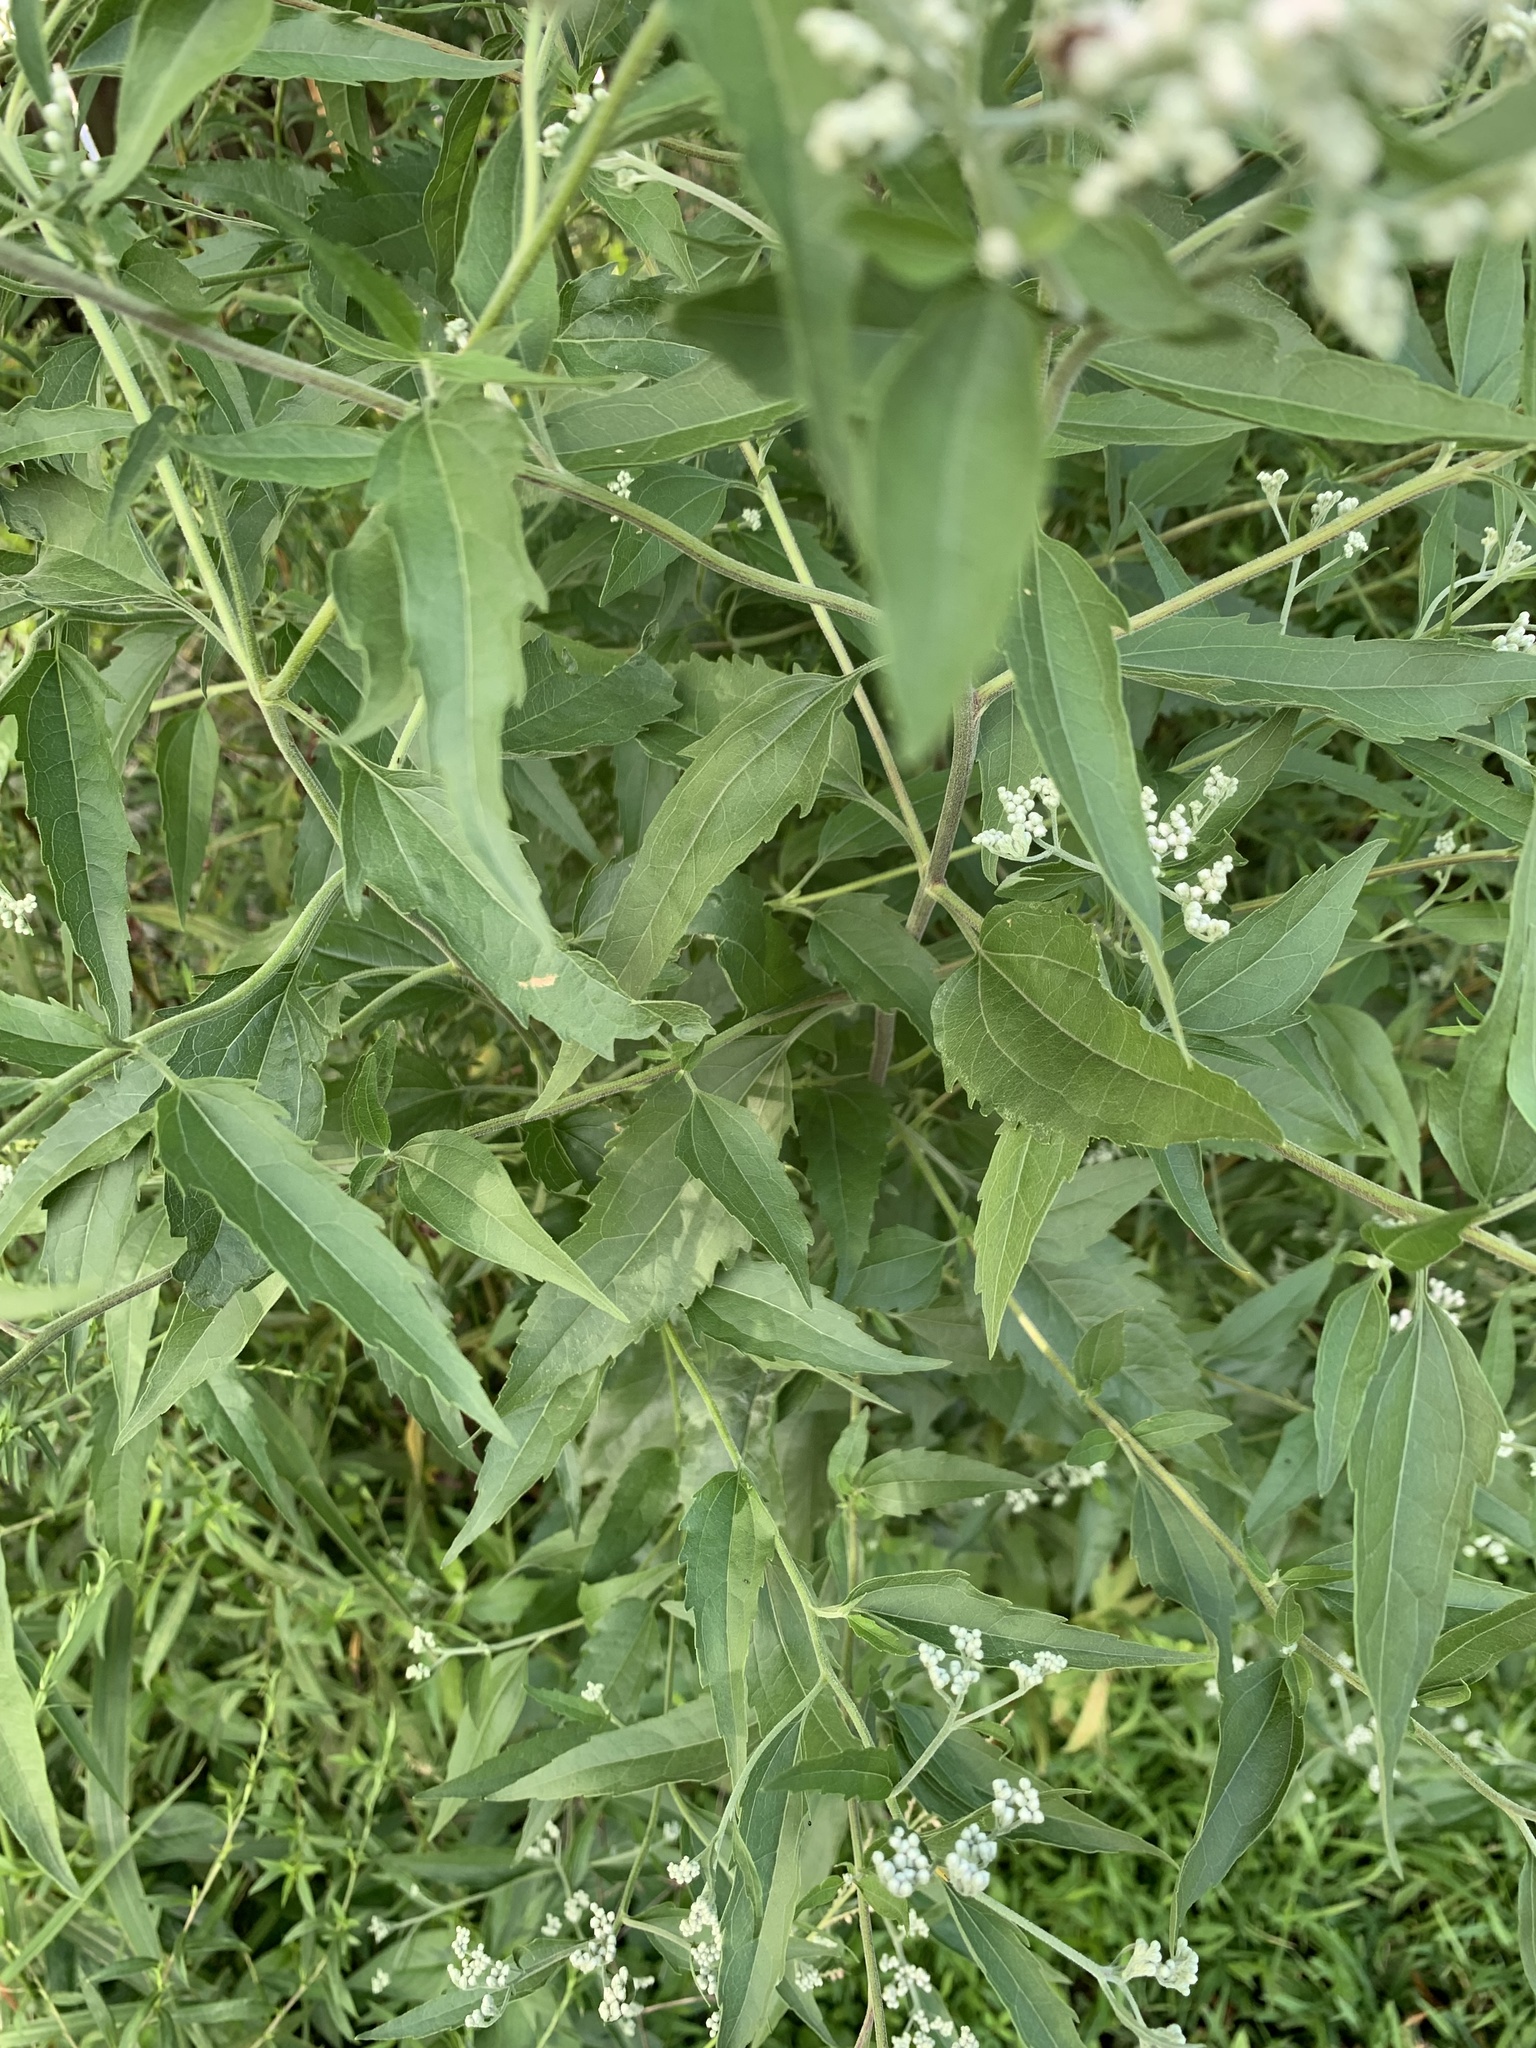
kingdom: Plantae
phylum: Tracheophyta
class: Magnoliopsida
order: Asterales
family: Asteraceae
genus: Eupatorium
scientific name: Eupatorium serotinum
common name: Late boneset
